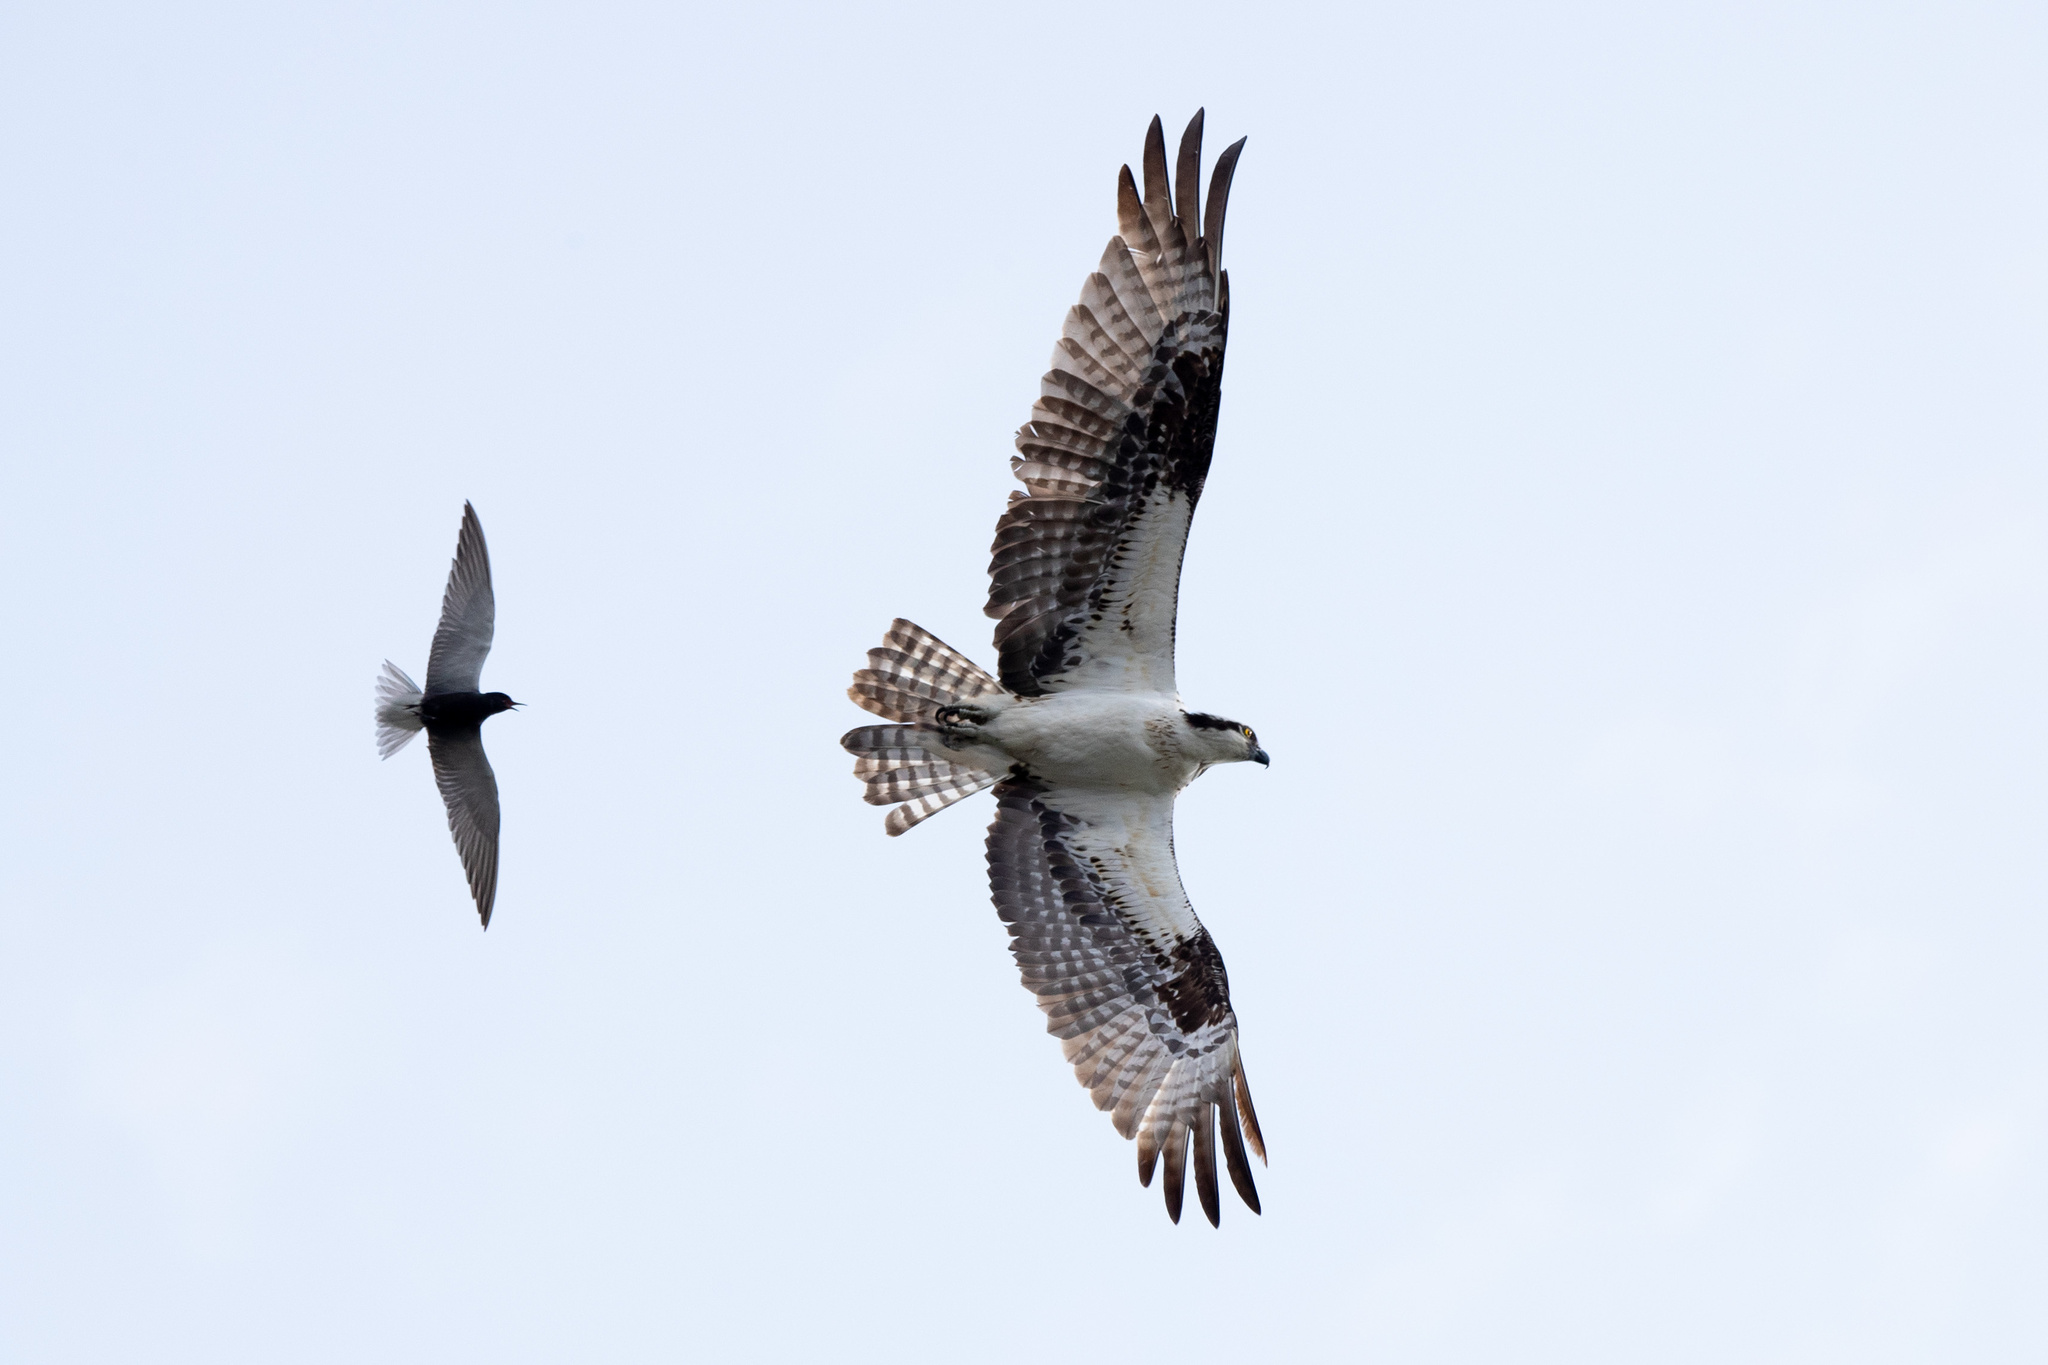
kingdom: Animalia
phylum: Chordata
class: Aves
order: Accipitriformes
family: Pandionidae
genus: Pandion
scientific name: Pandion haliaetus
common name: Osprey
